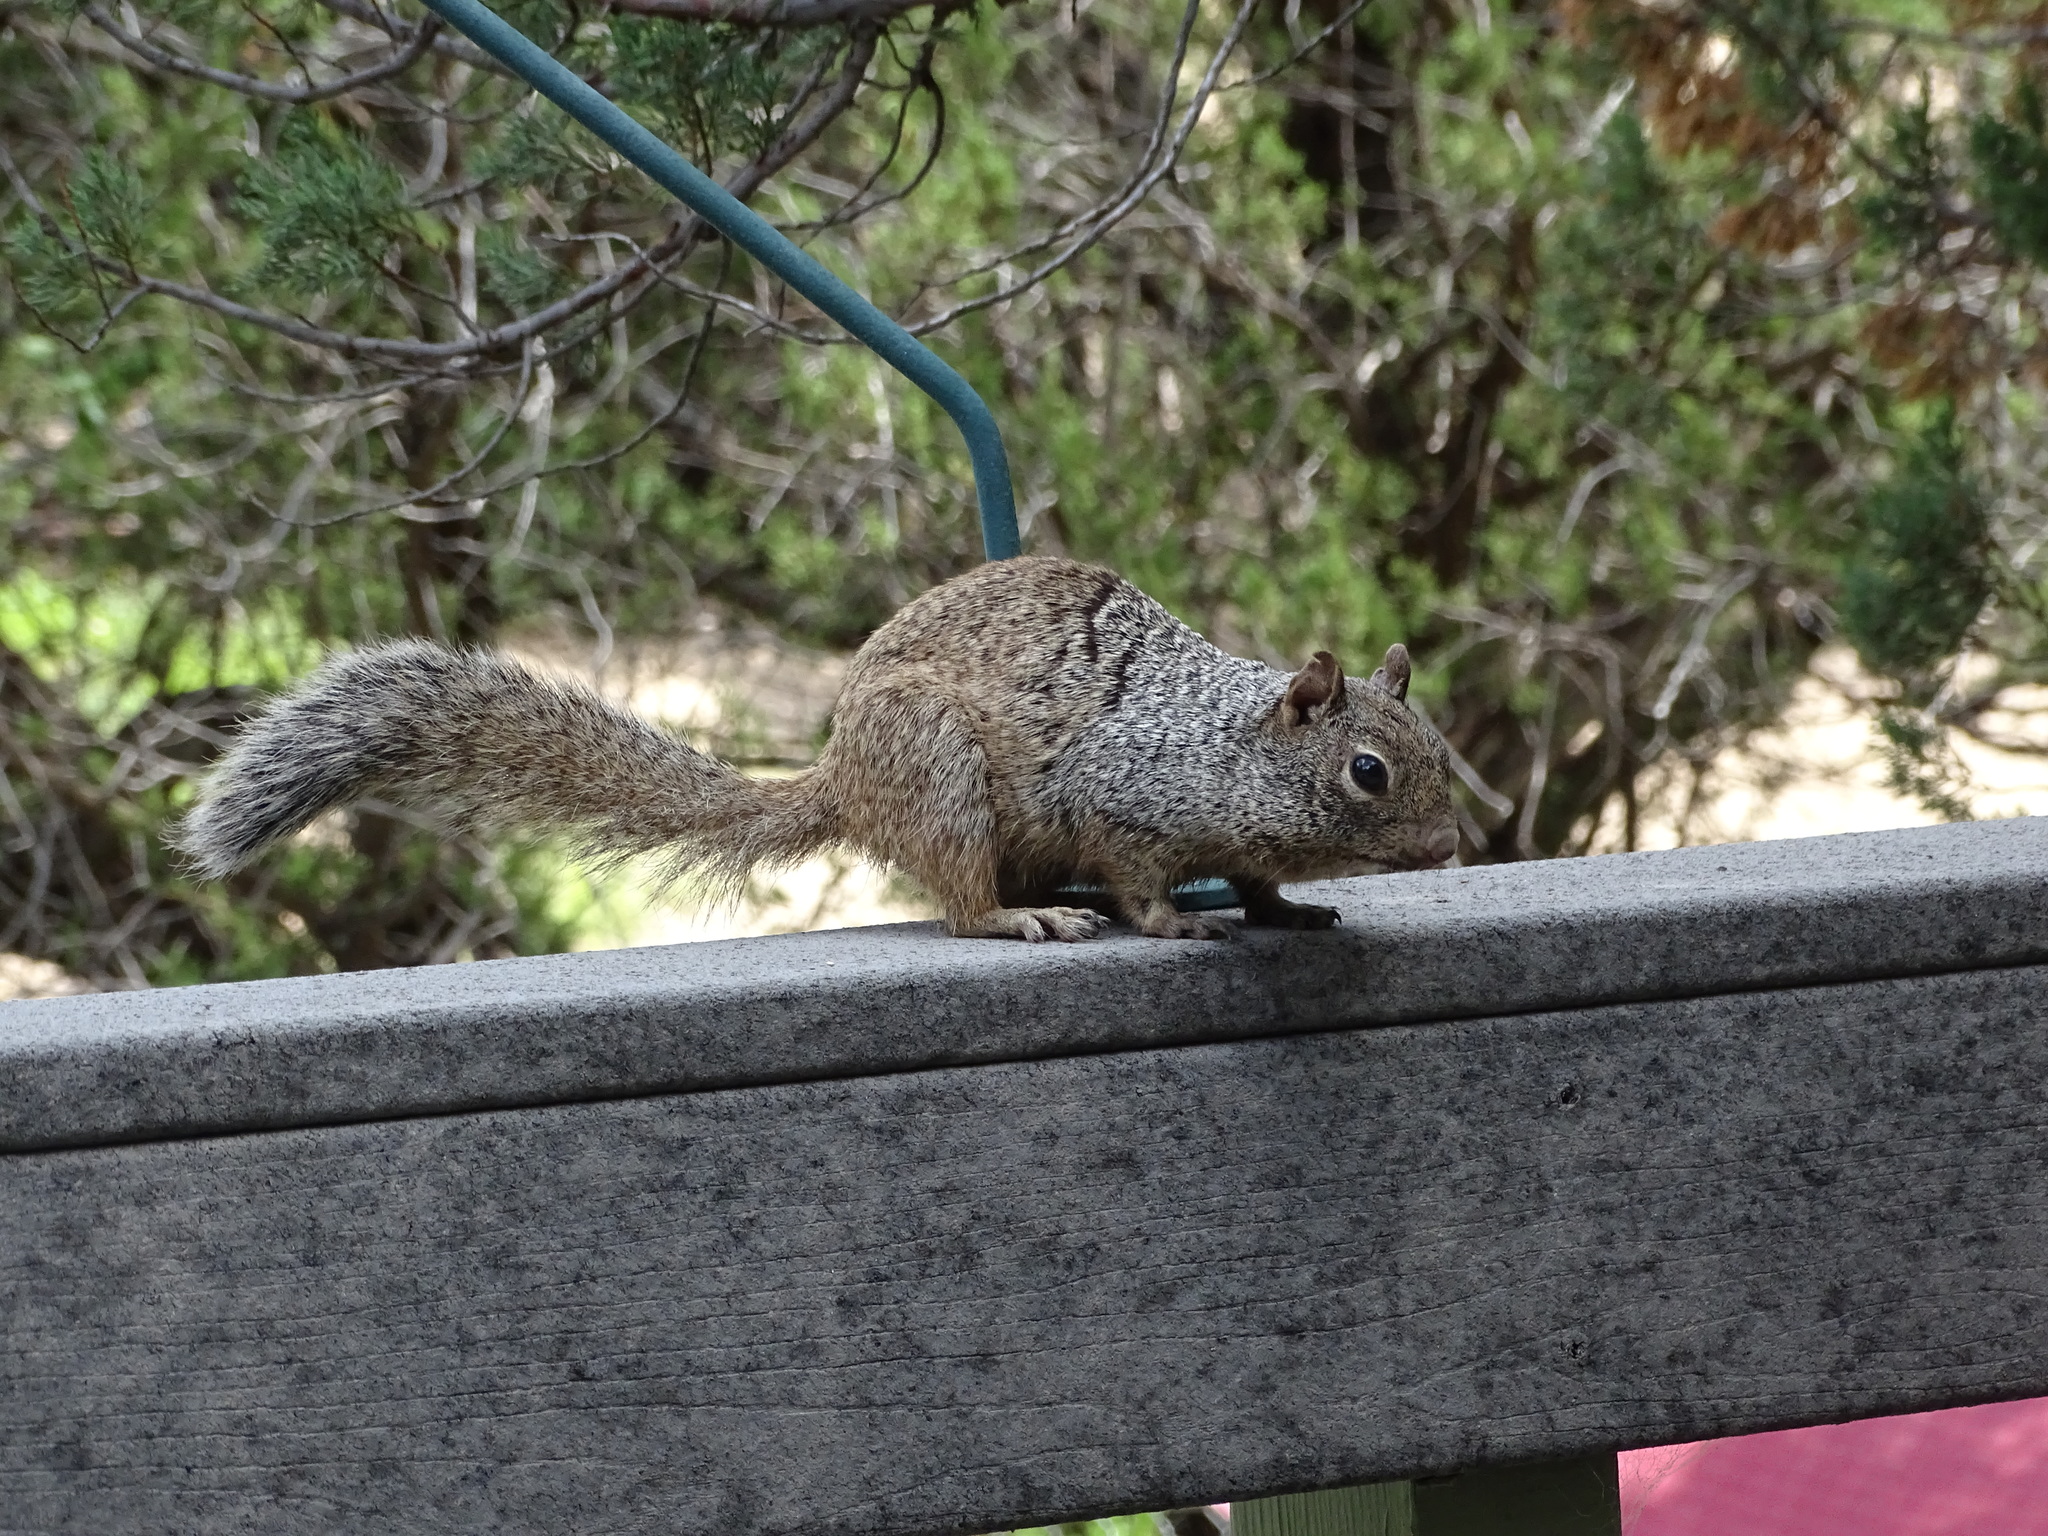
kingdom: Animalia
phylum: Chordata
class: Mammalia
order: Rodentia
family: Sciuridae
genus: Otospermophilus
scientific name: Otospermophilus variegatus
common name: Rock squirrel
